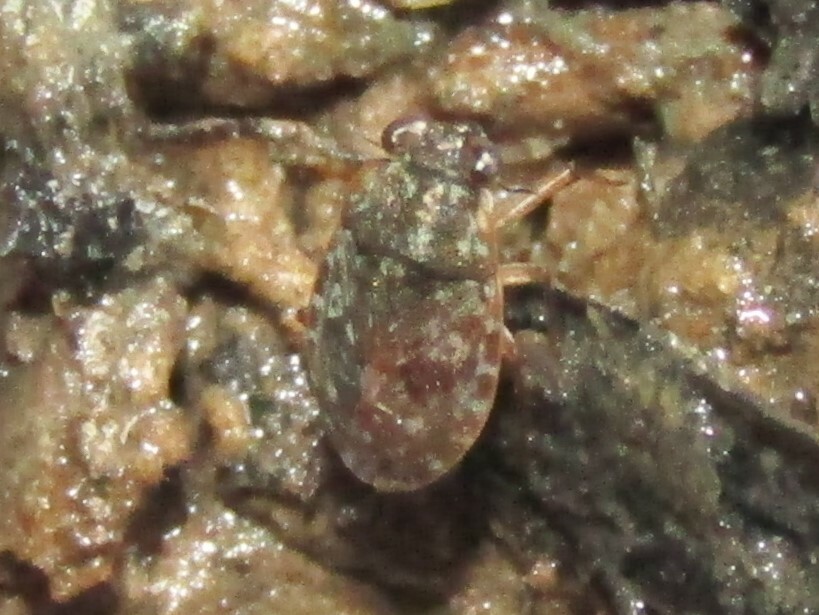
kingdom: Animalia
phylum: Arthropoda
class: Insecta
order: Hemiptera
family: Ochteridae
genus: Ochterus
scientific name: Ochterus
